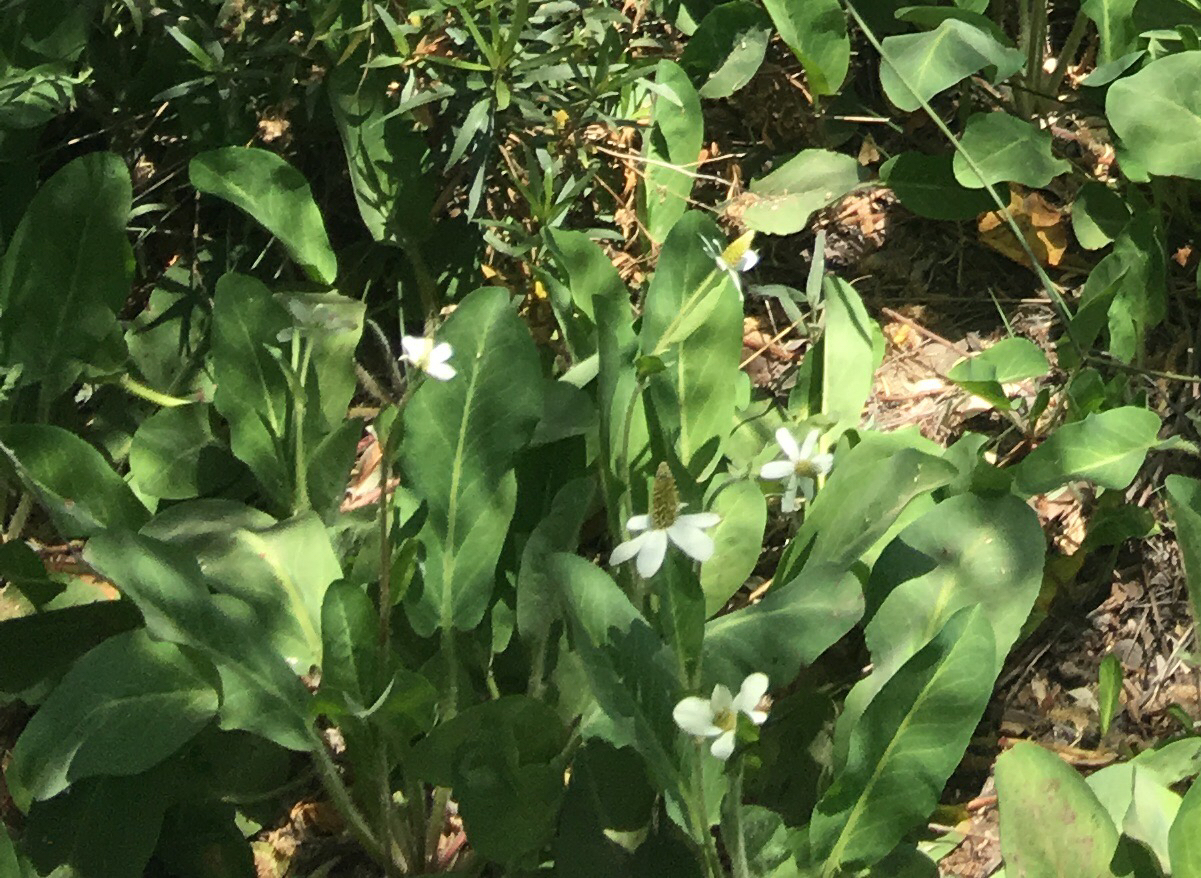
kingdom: Plantae
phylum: Tracheophyta
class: Magnoliopsida
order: Piperales
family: Saururaceae
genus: Anemopsis
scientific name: Anemopsis californica
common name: Apache-beads
